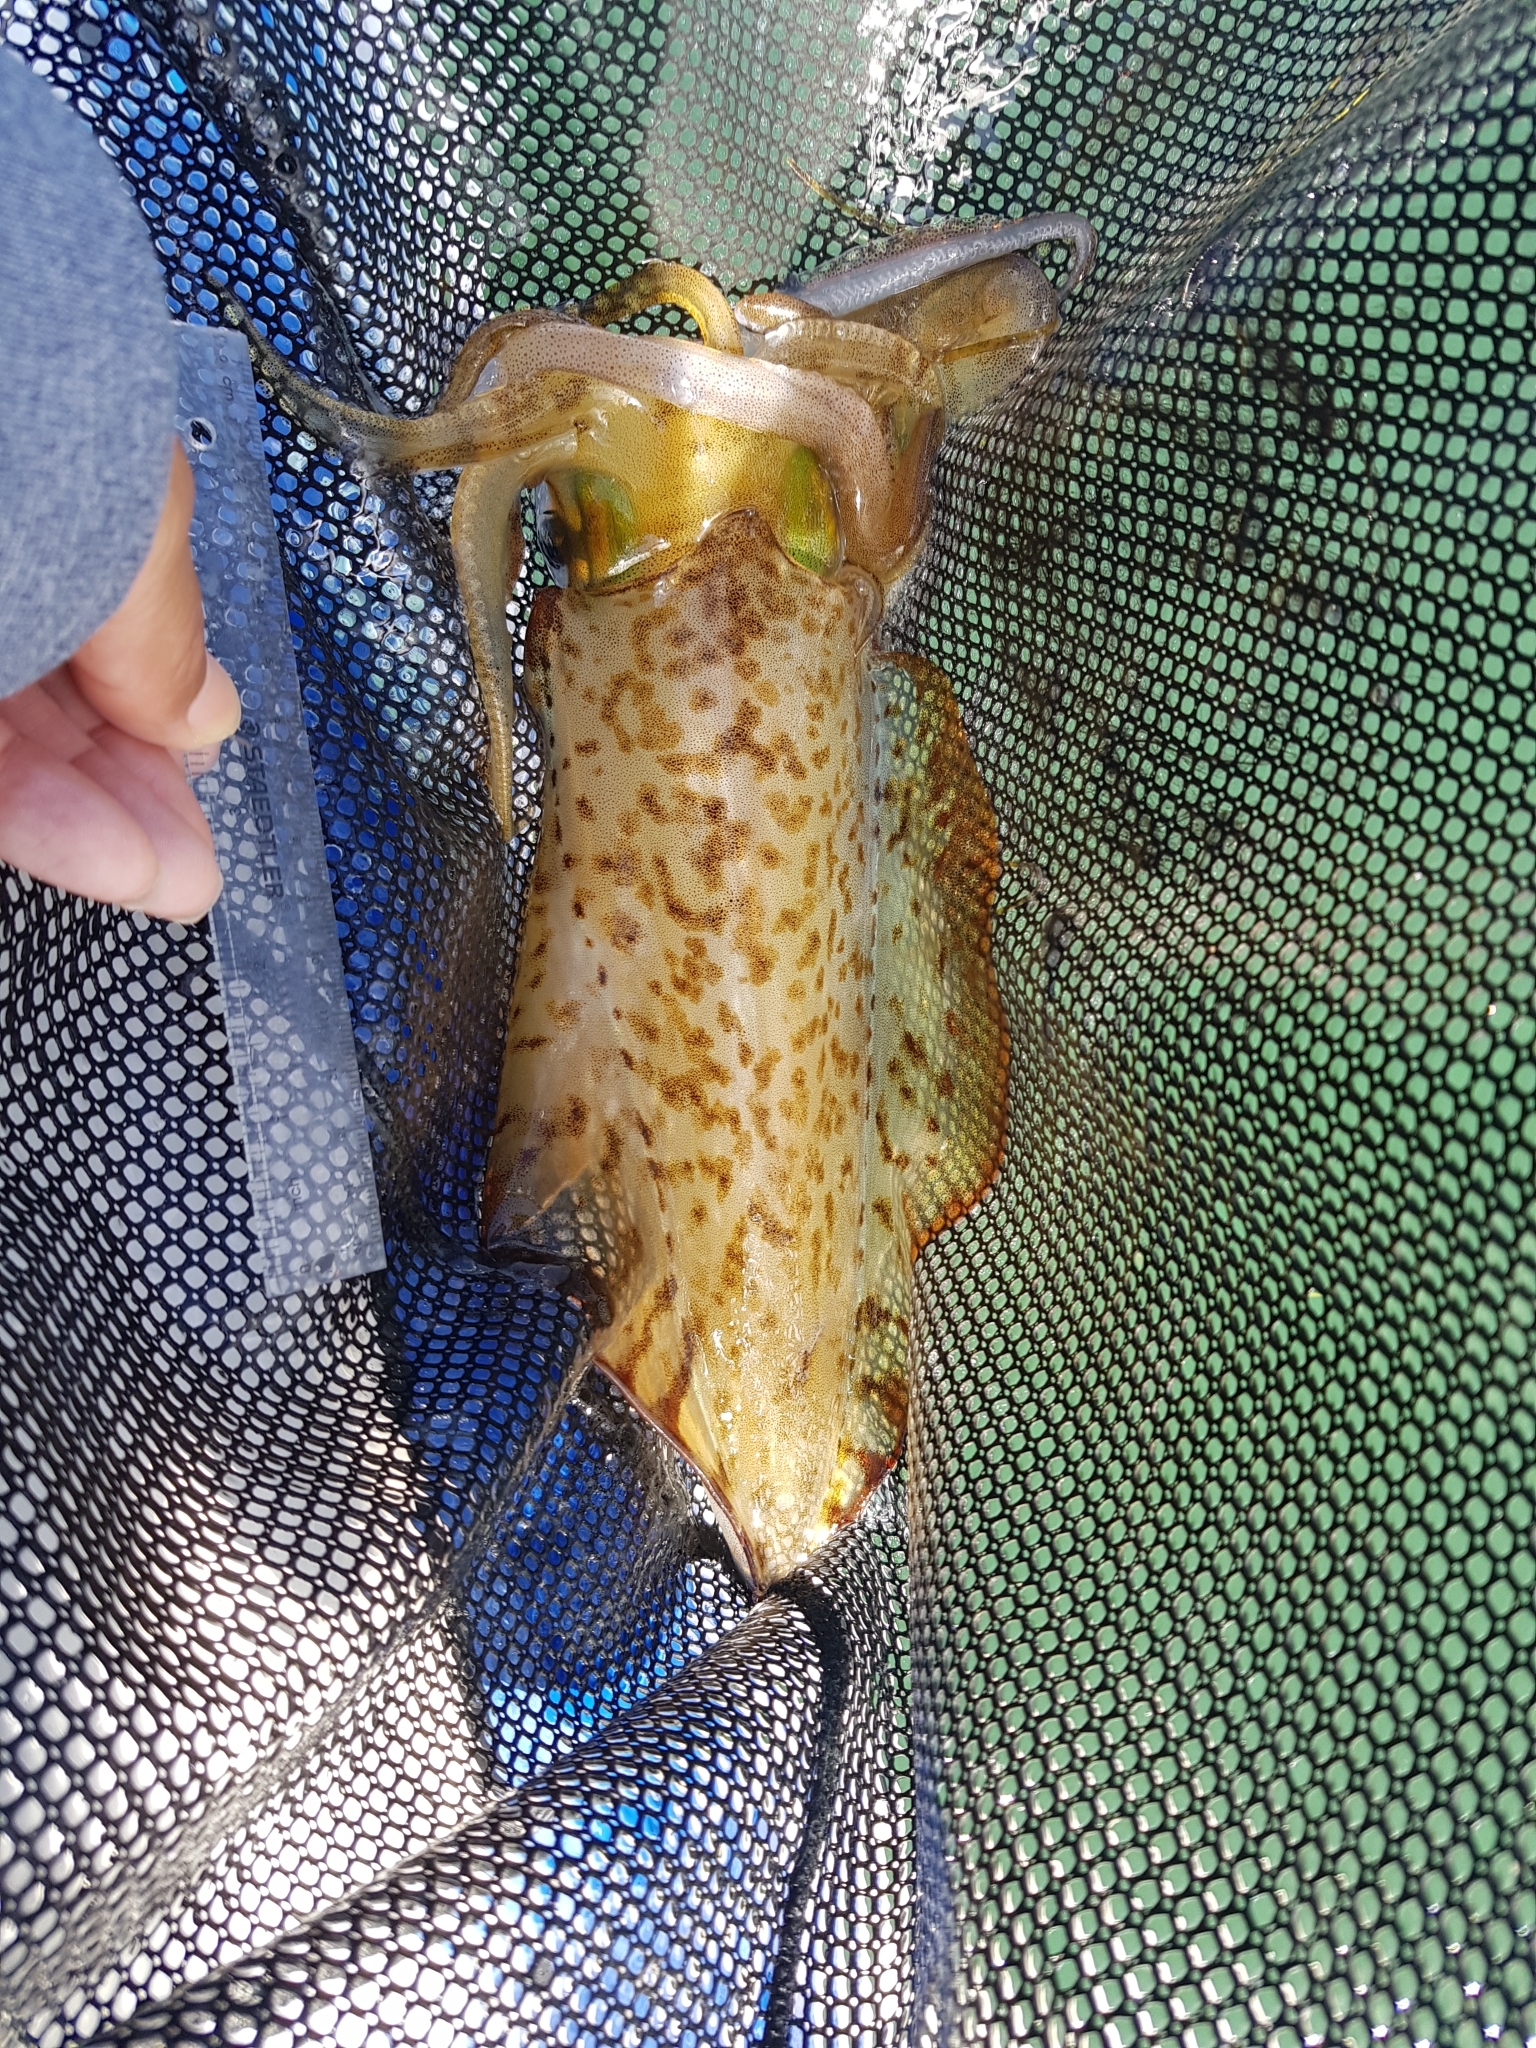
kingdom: Animalia
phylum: Mollusca
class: Cephalopoda
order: Myopsida
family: Loliginidae
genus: Sepioteuthis
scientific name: Sepioteuthis australis
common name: Southern reef squid
